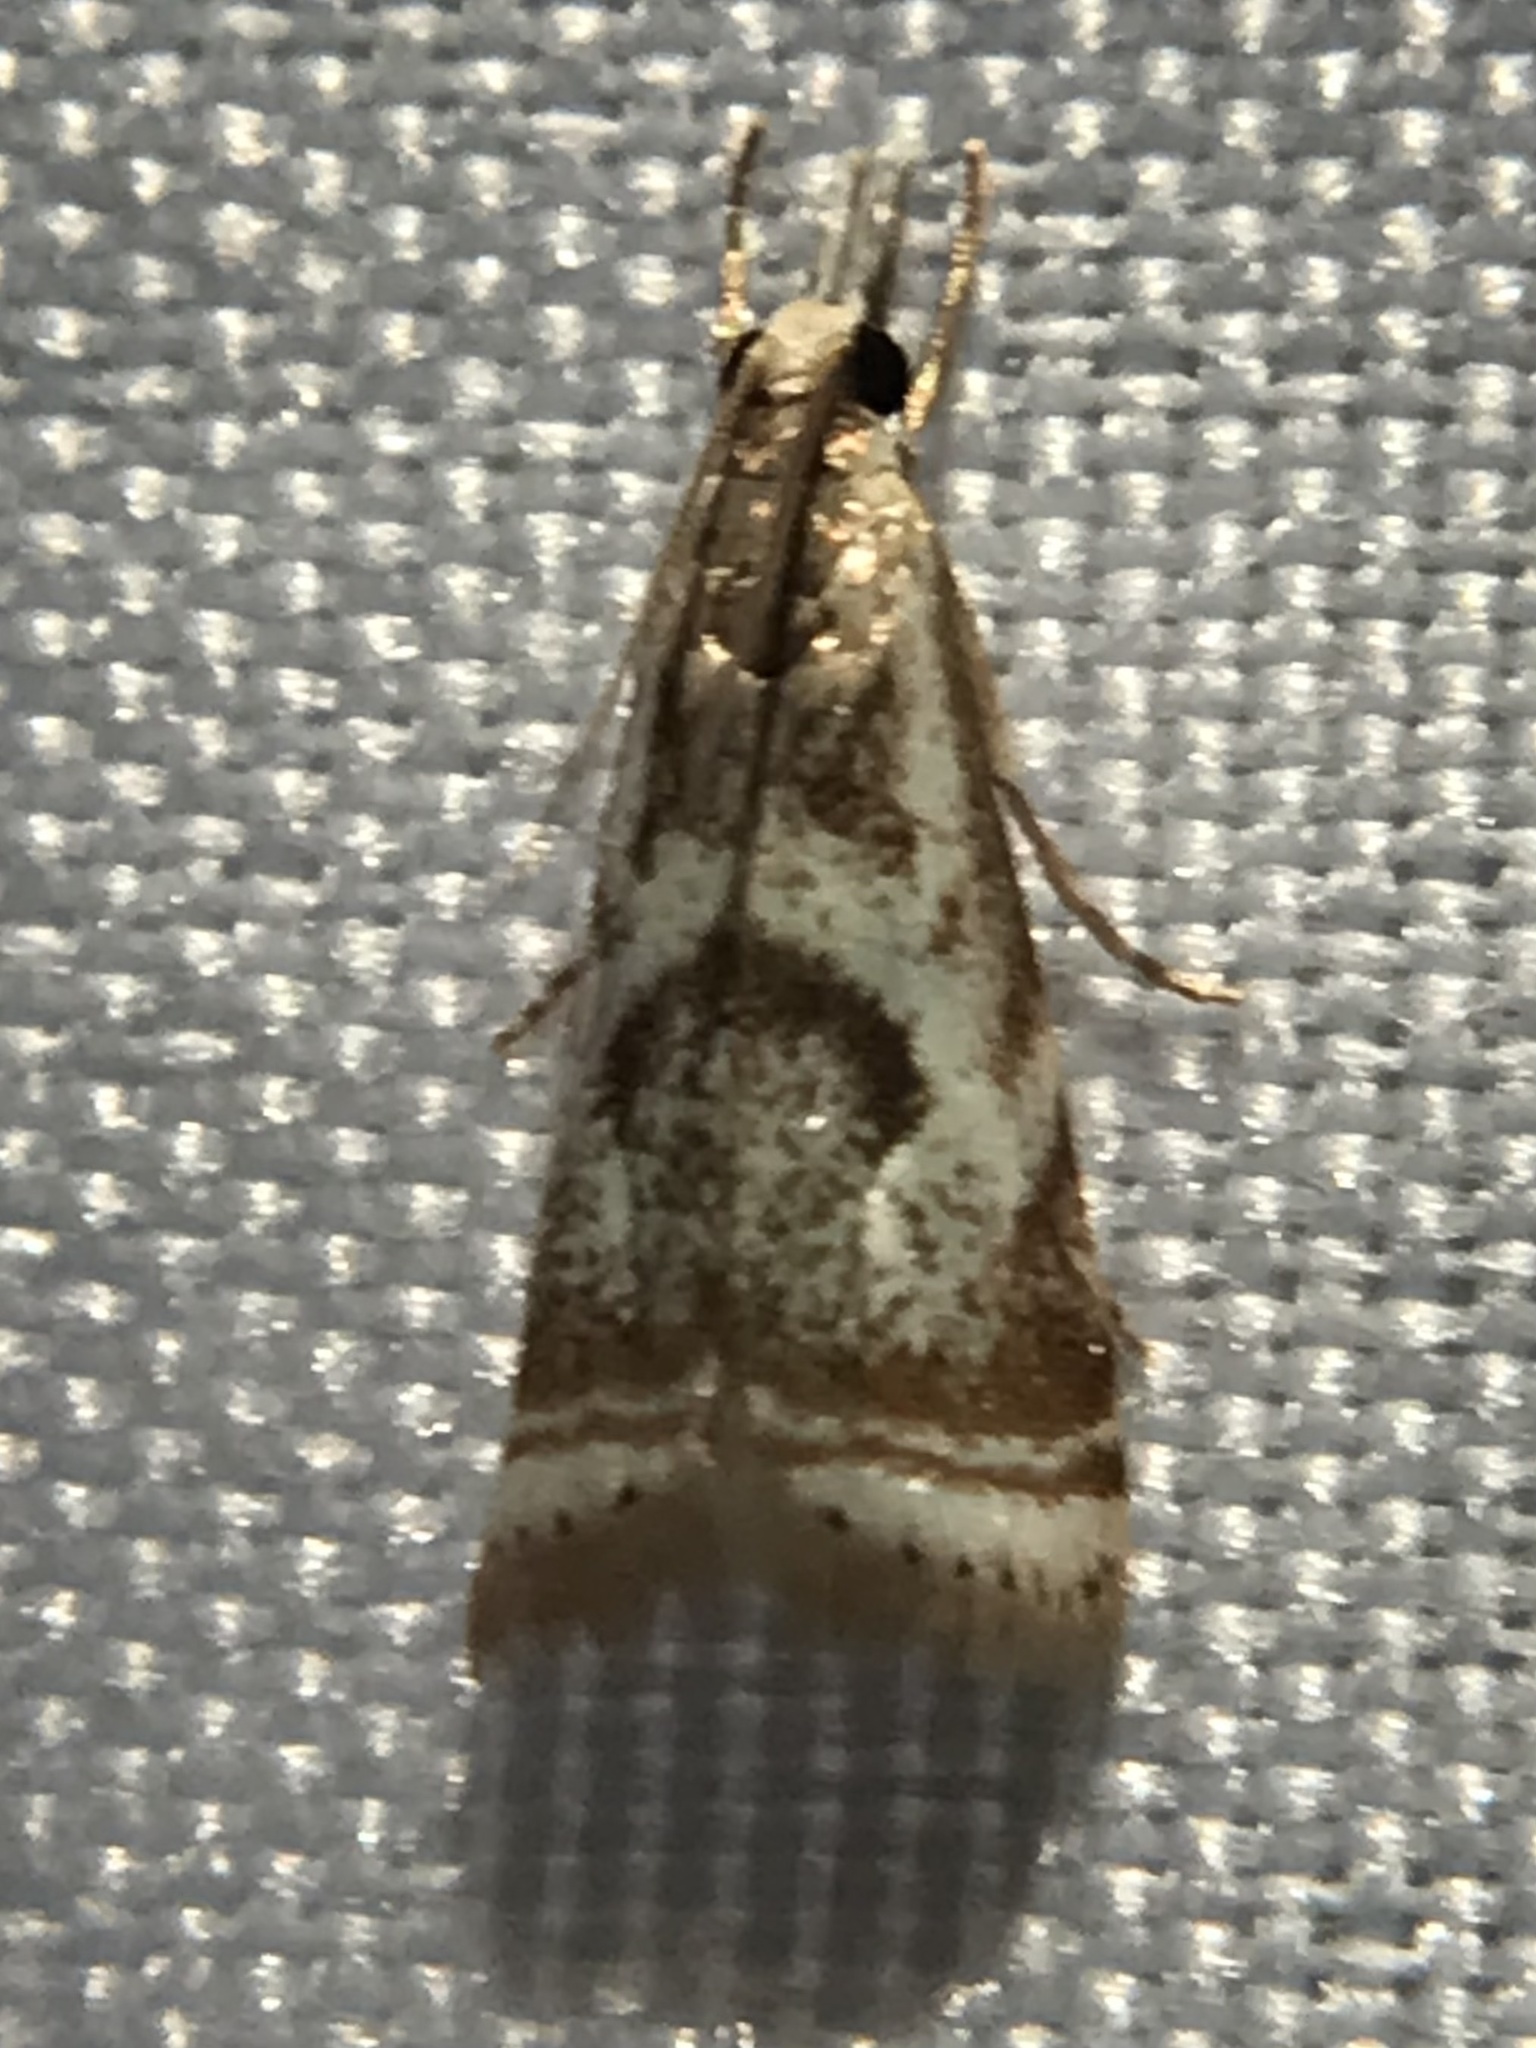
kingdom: Animalia
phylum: Arthropoda
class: Insecta
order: Lepidoptera
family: Crambidae
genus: Microcrambus
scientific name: Microcrambus elegans
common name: Elegant grass-veneer
